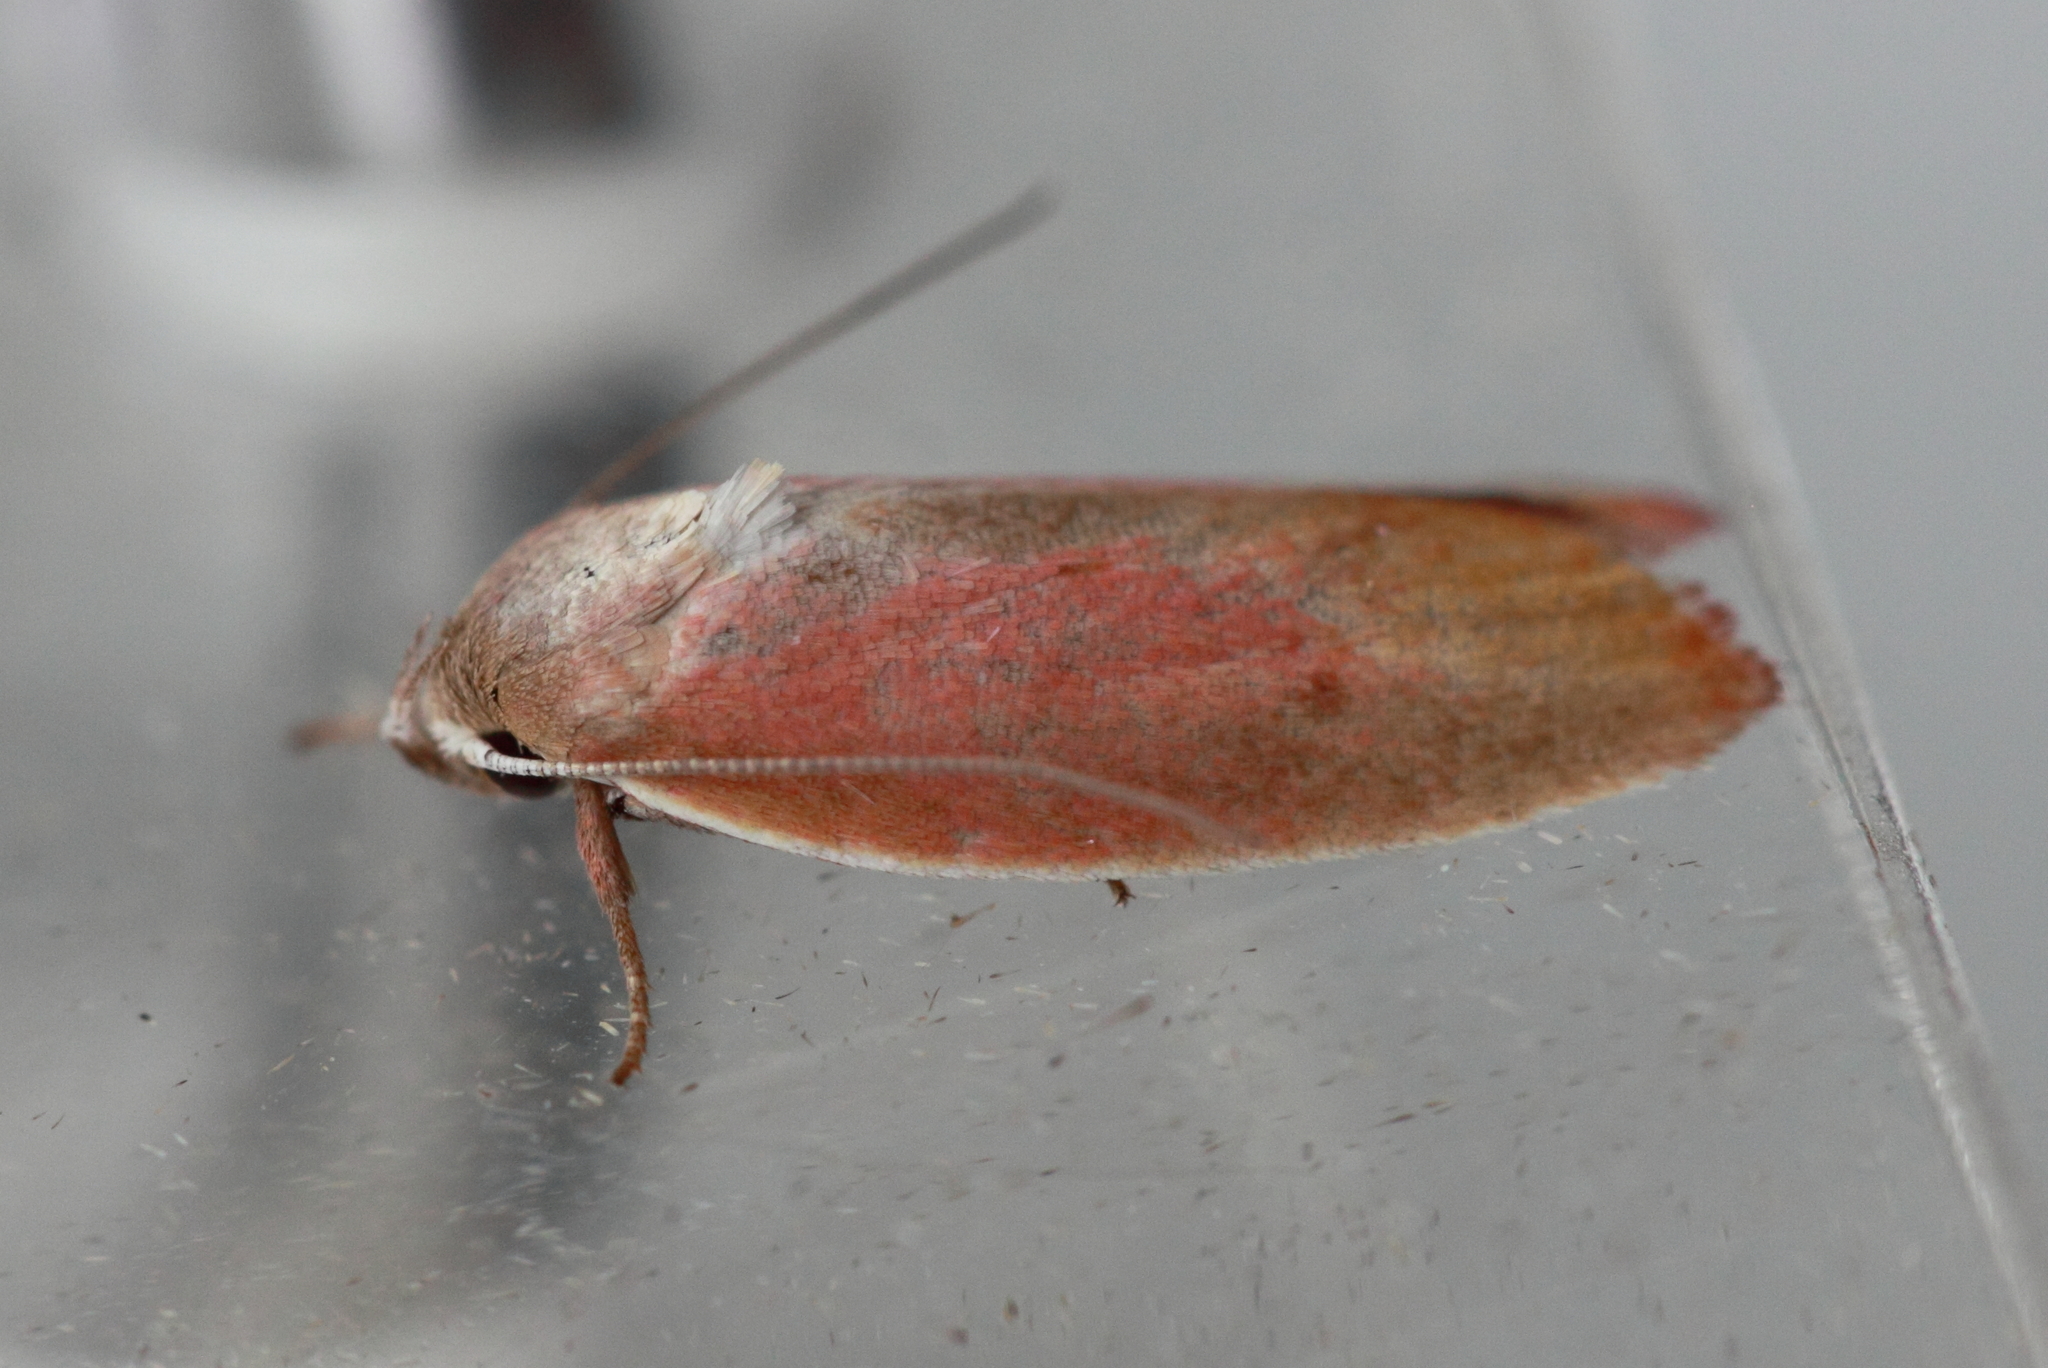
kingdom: Animalia
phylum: Arthropoda
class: Insecta
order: Lepidoptera
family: Oecophoridae
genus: Ptyoptila
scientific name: Ptyoptila matutinella
